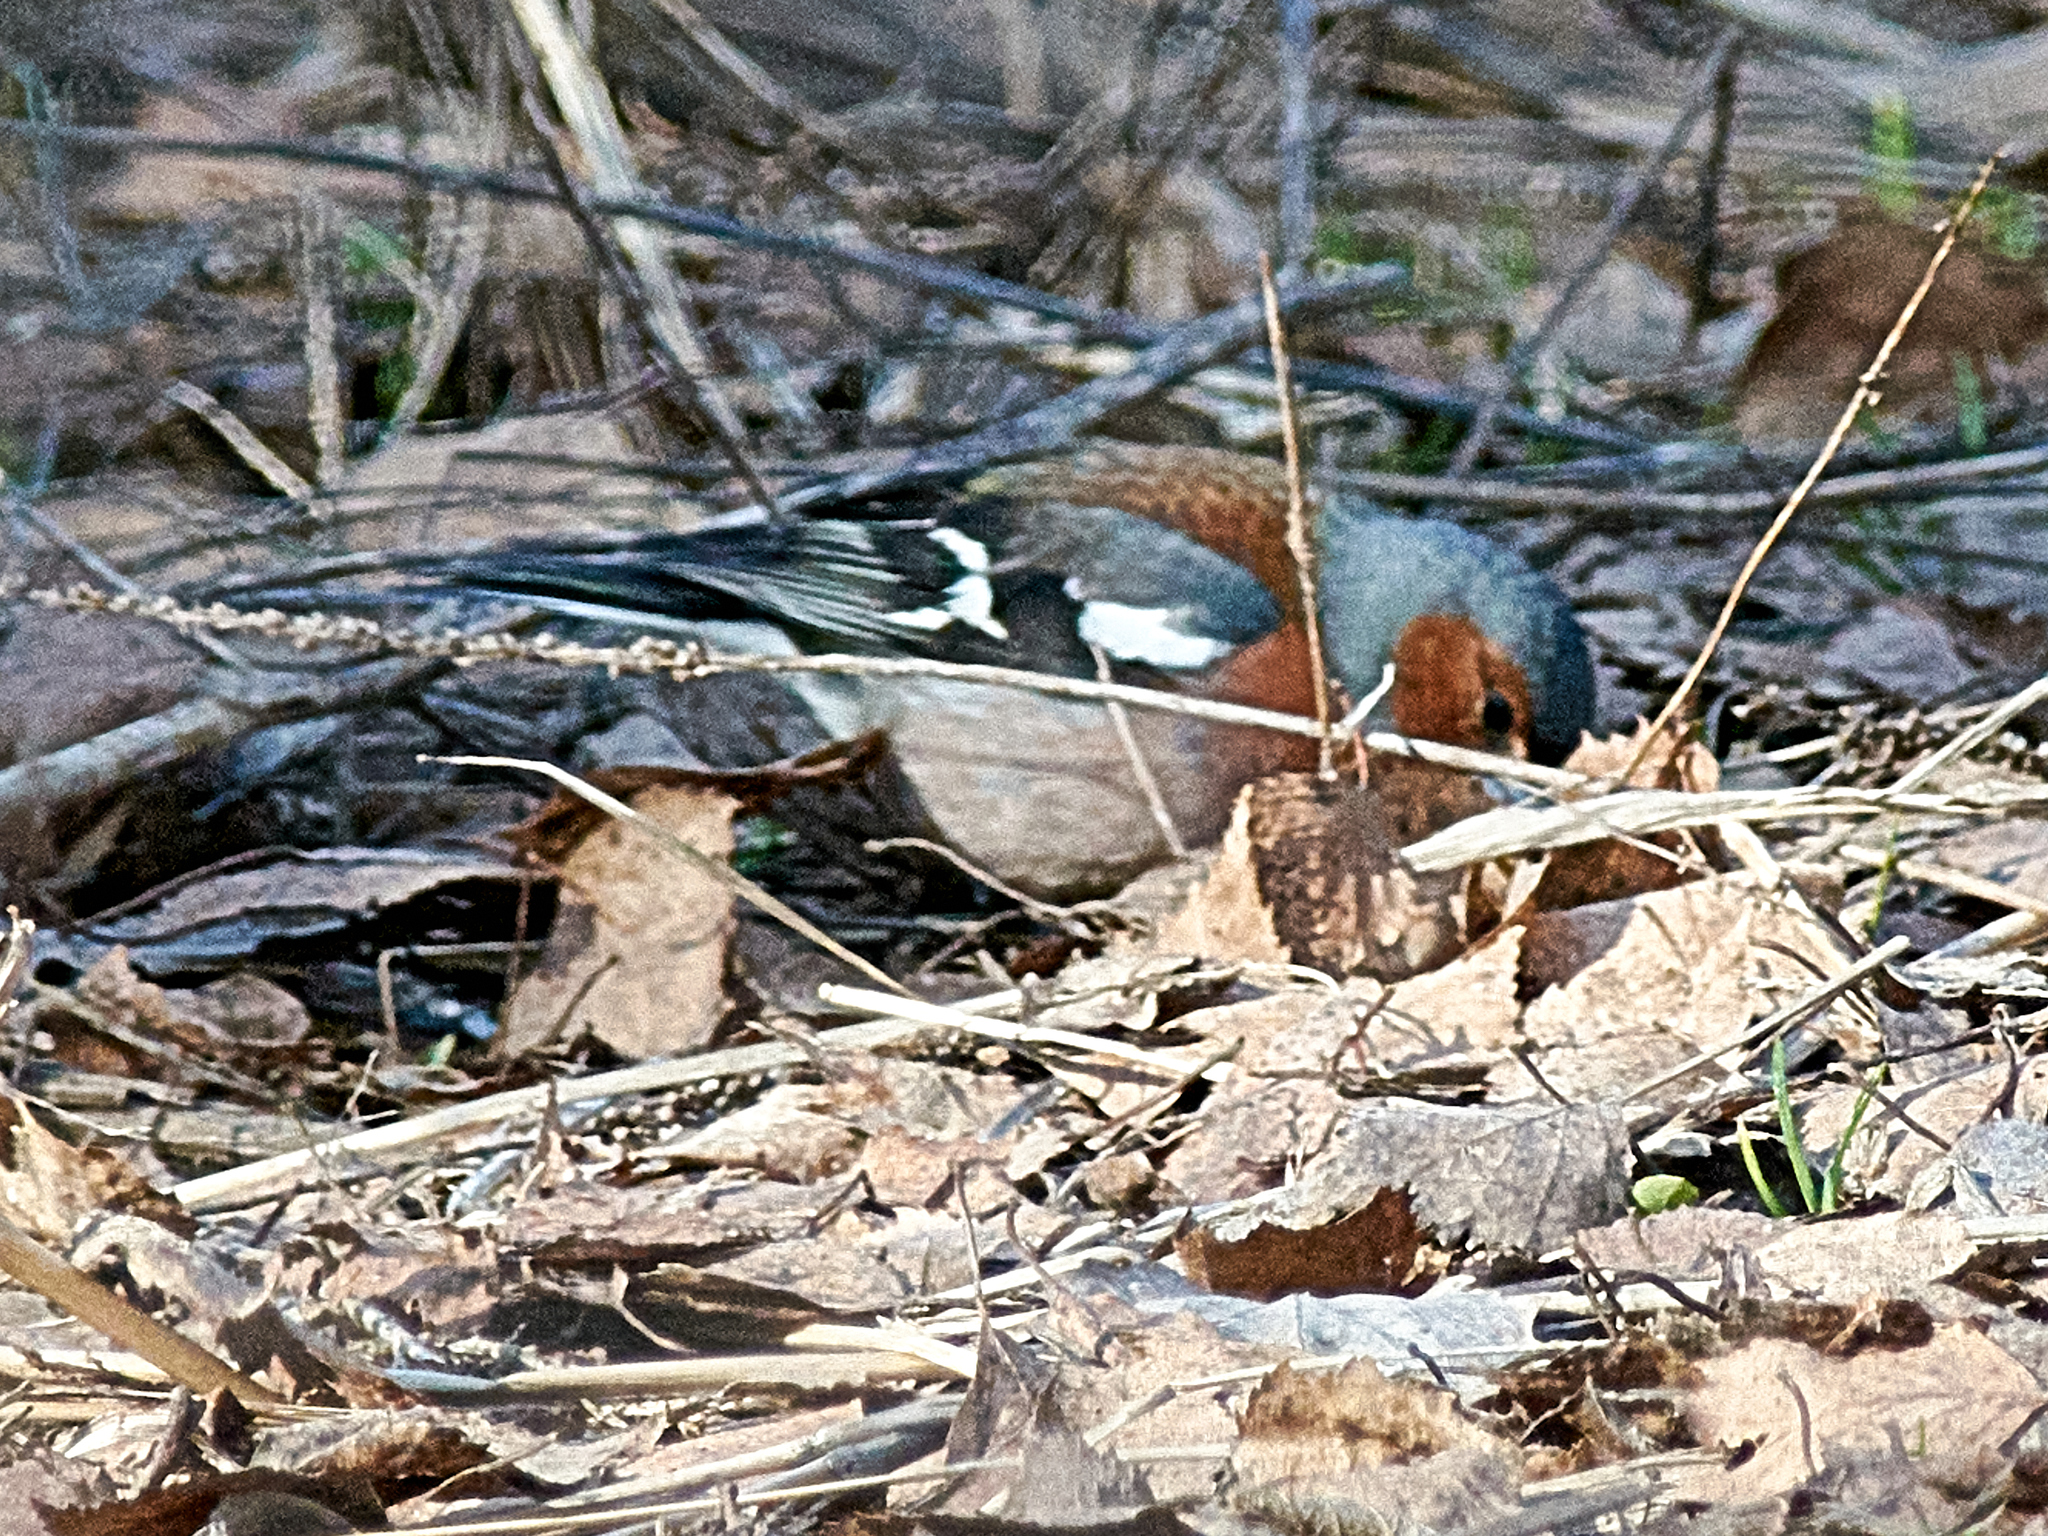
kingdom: Animalia
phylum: Chordata
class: Aves
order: Passeriformes
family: Fringillidae
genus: Fringilla
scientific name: Fringilla coelebs
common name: Common chaffinch
